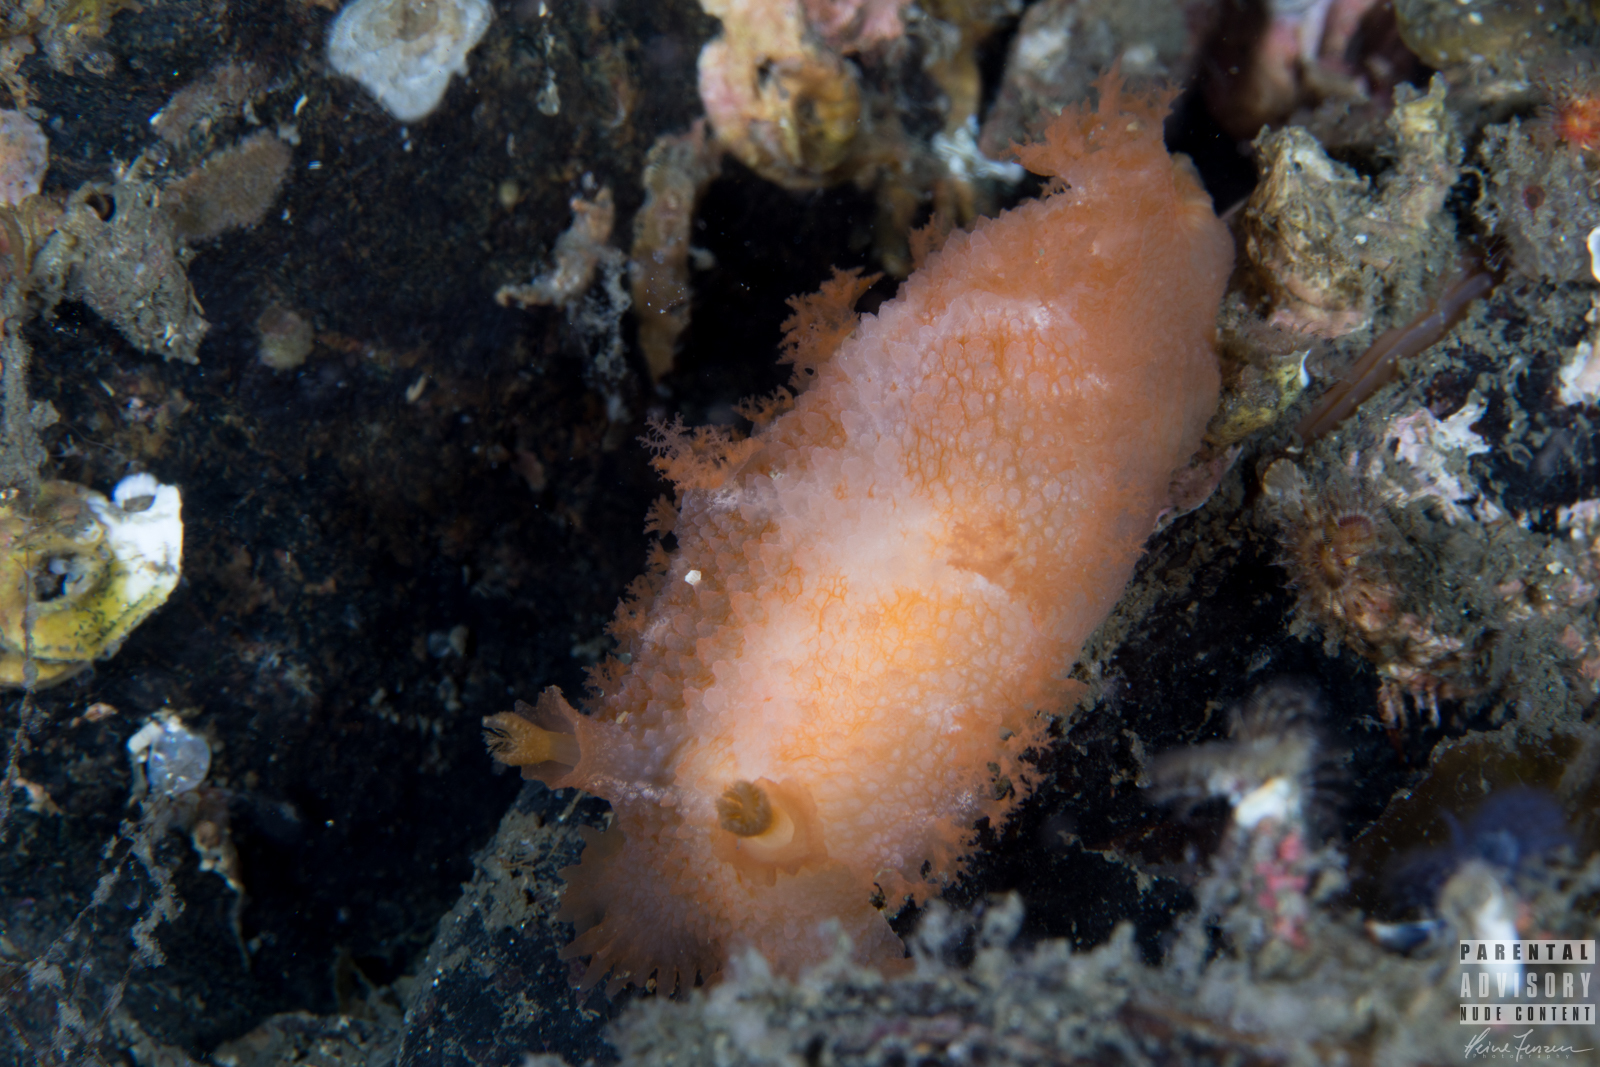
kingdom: Animalia
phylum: Mollusca
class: Gastropoda
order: Nudibranchia
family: Tritoniidae
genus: Tritonia
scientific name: Tritonia hombergii
